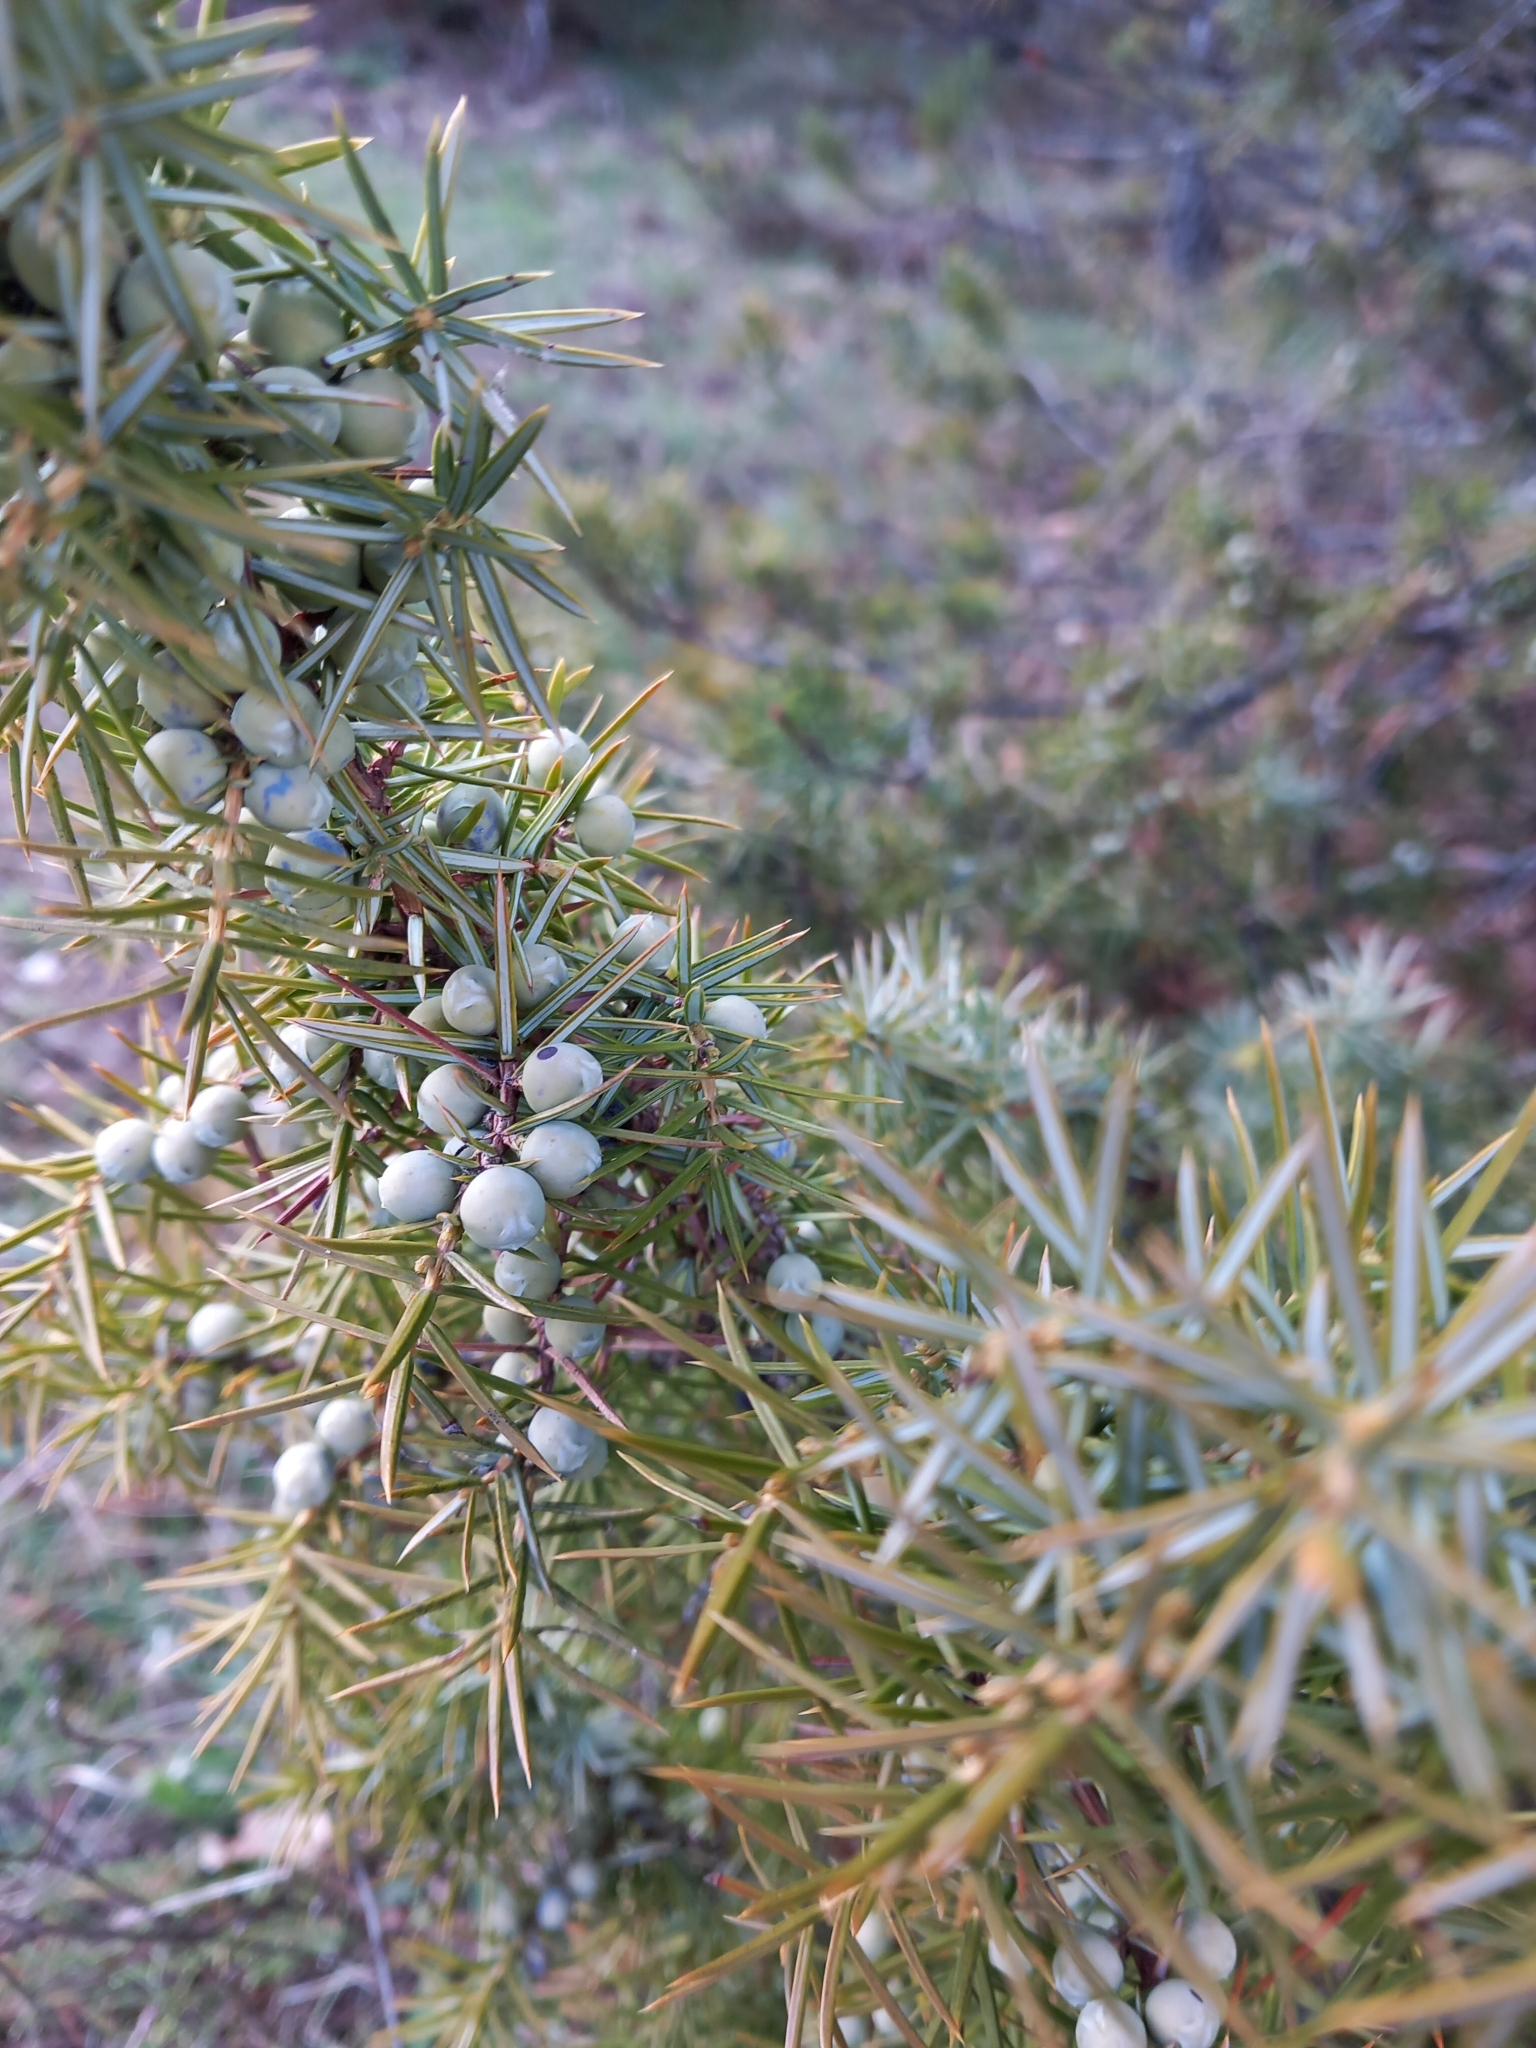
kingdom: Plantae
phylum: Tracheophyta
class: Pinopsida
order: Pinales
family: Cupressaceae
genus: Juniperus
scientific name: Juniperus communis
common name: Common juniper
